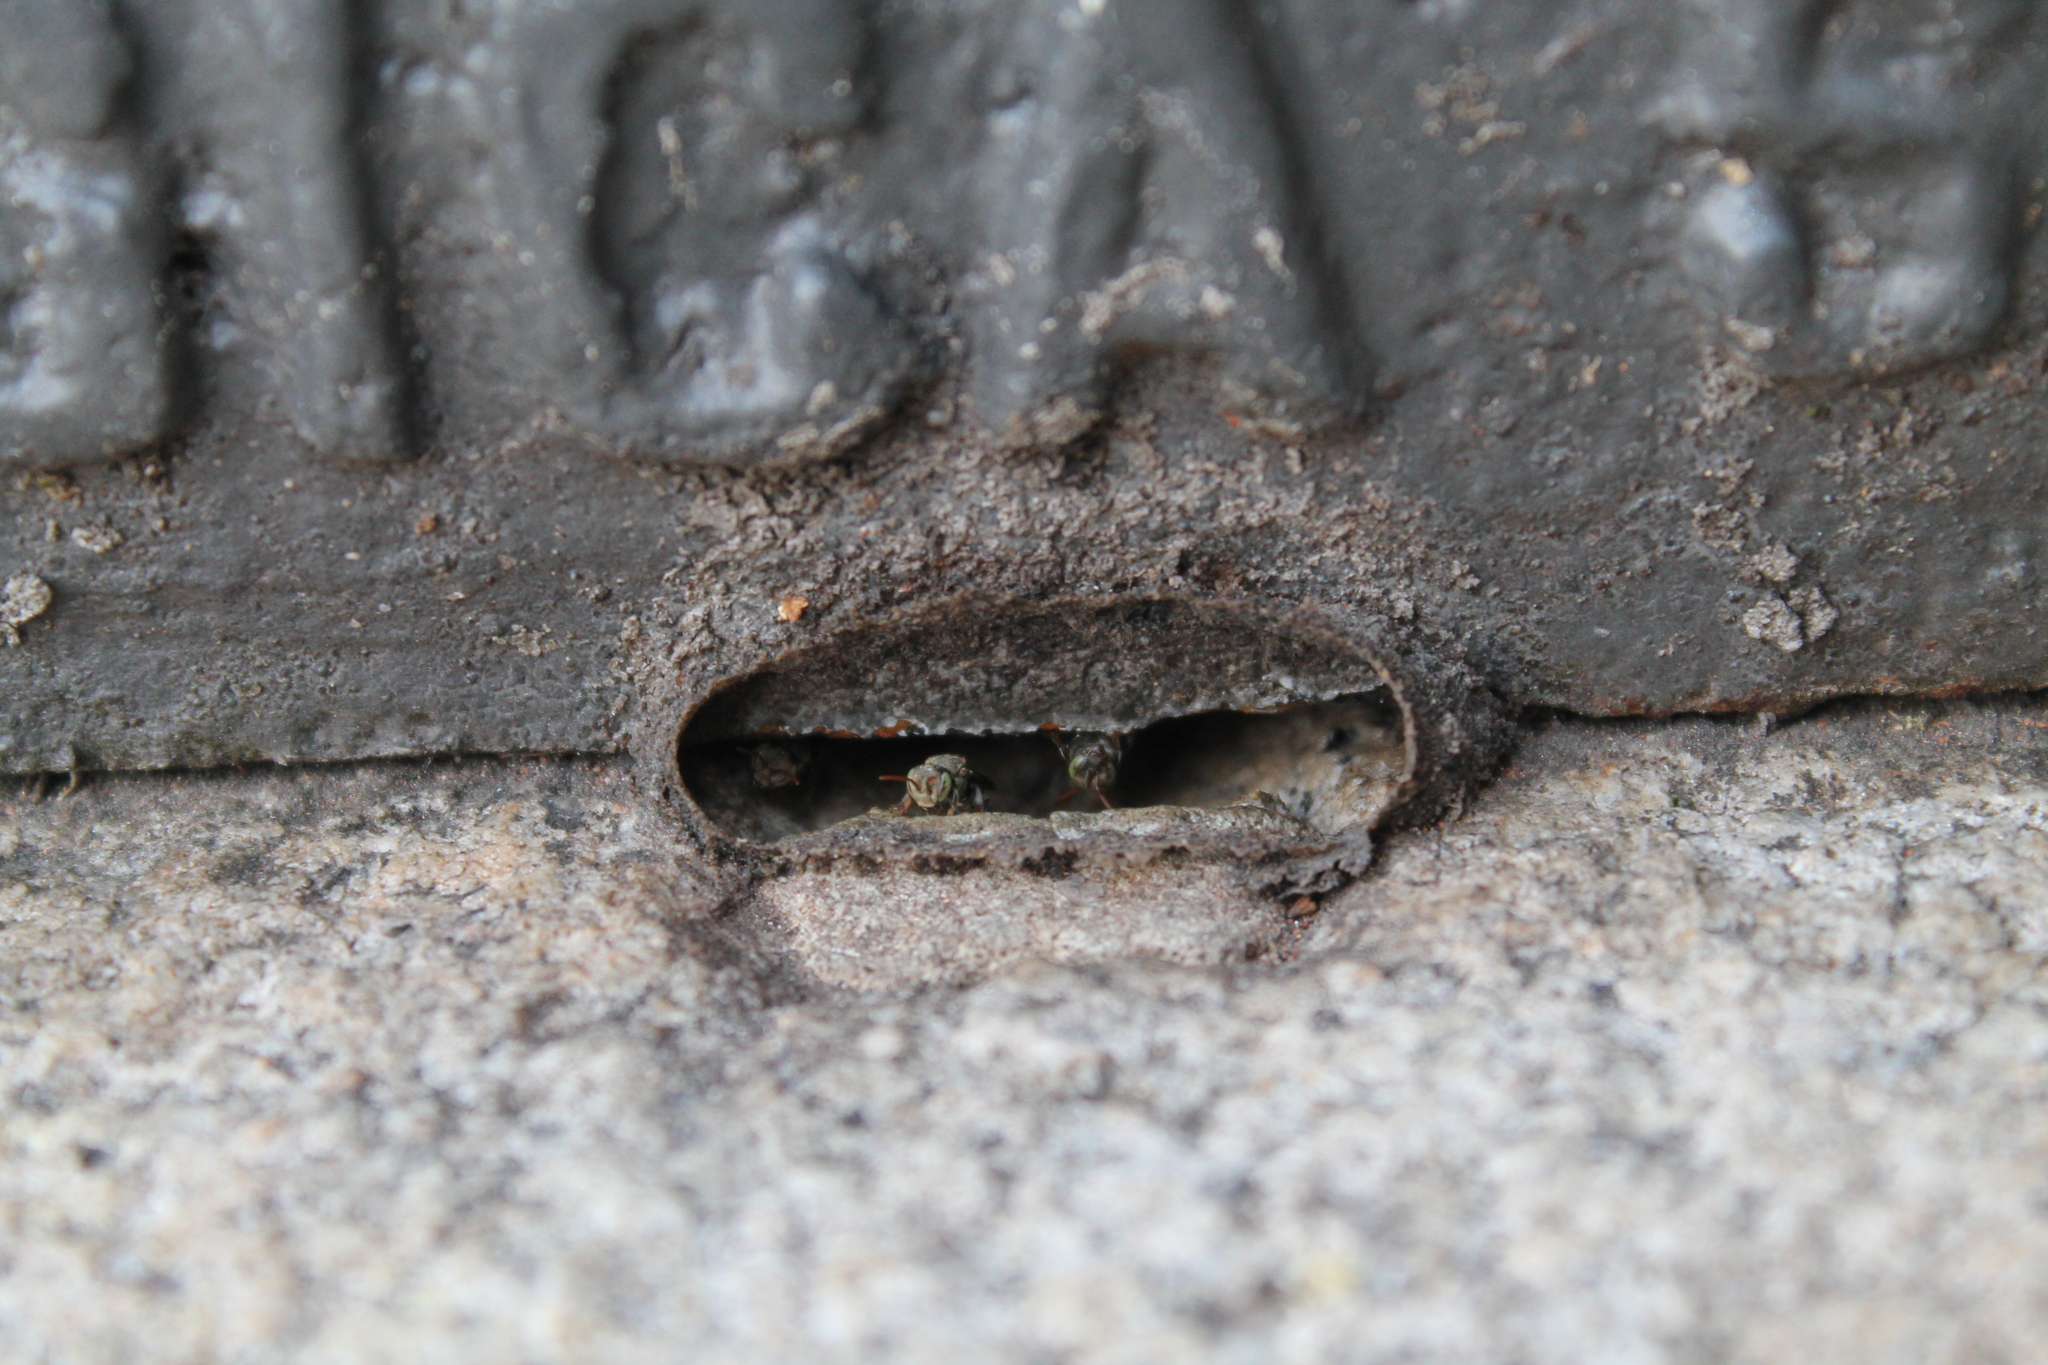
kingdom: Animalia
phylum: Arthropoda
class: Insecta
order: Hymenoptera
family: Apidae
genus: Nannotrigona
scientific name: Nannotrigona testaceicornis
